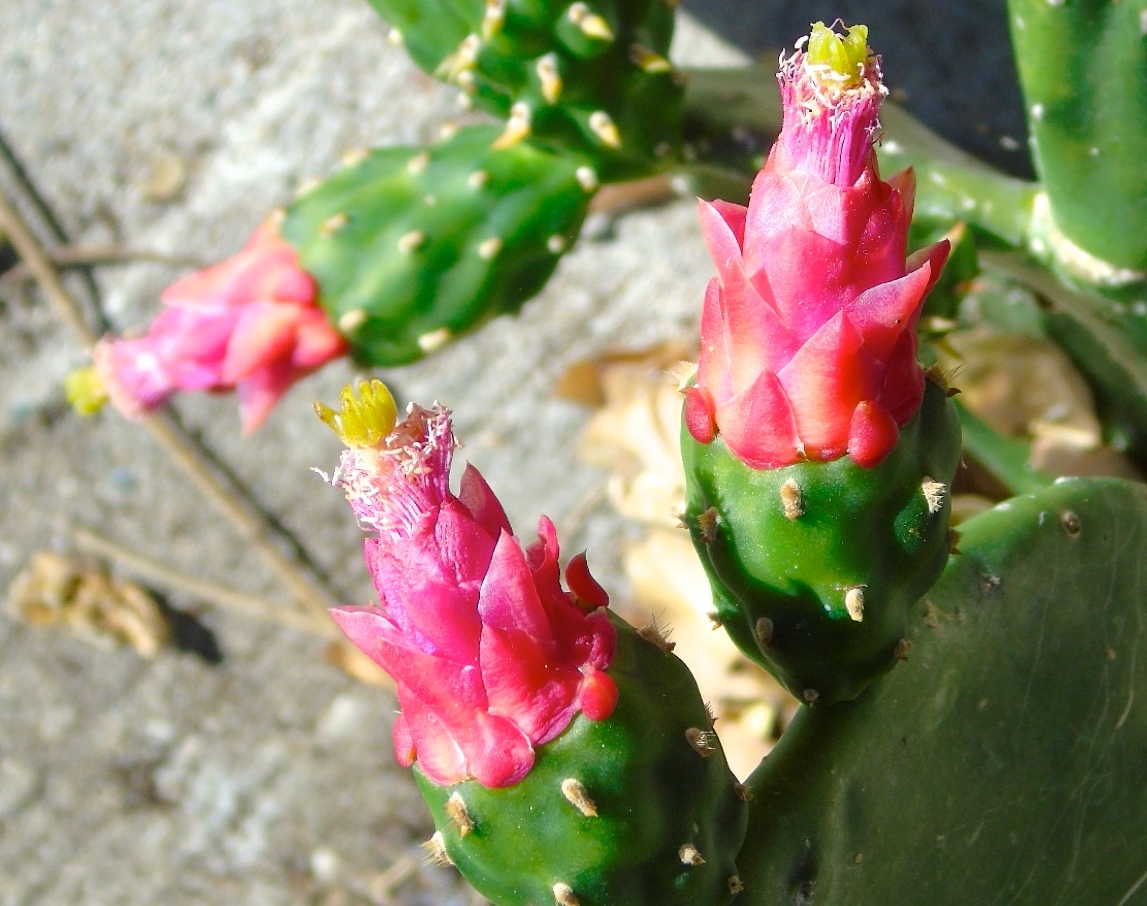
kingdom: Plantae
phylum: Tracheophyta
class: Magnoliopsida
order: Caryophyllales
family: Cactaceae
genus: Opuntia
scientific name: Opuntia cochenillifera
